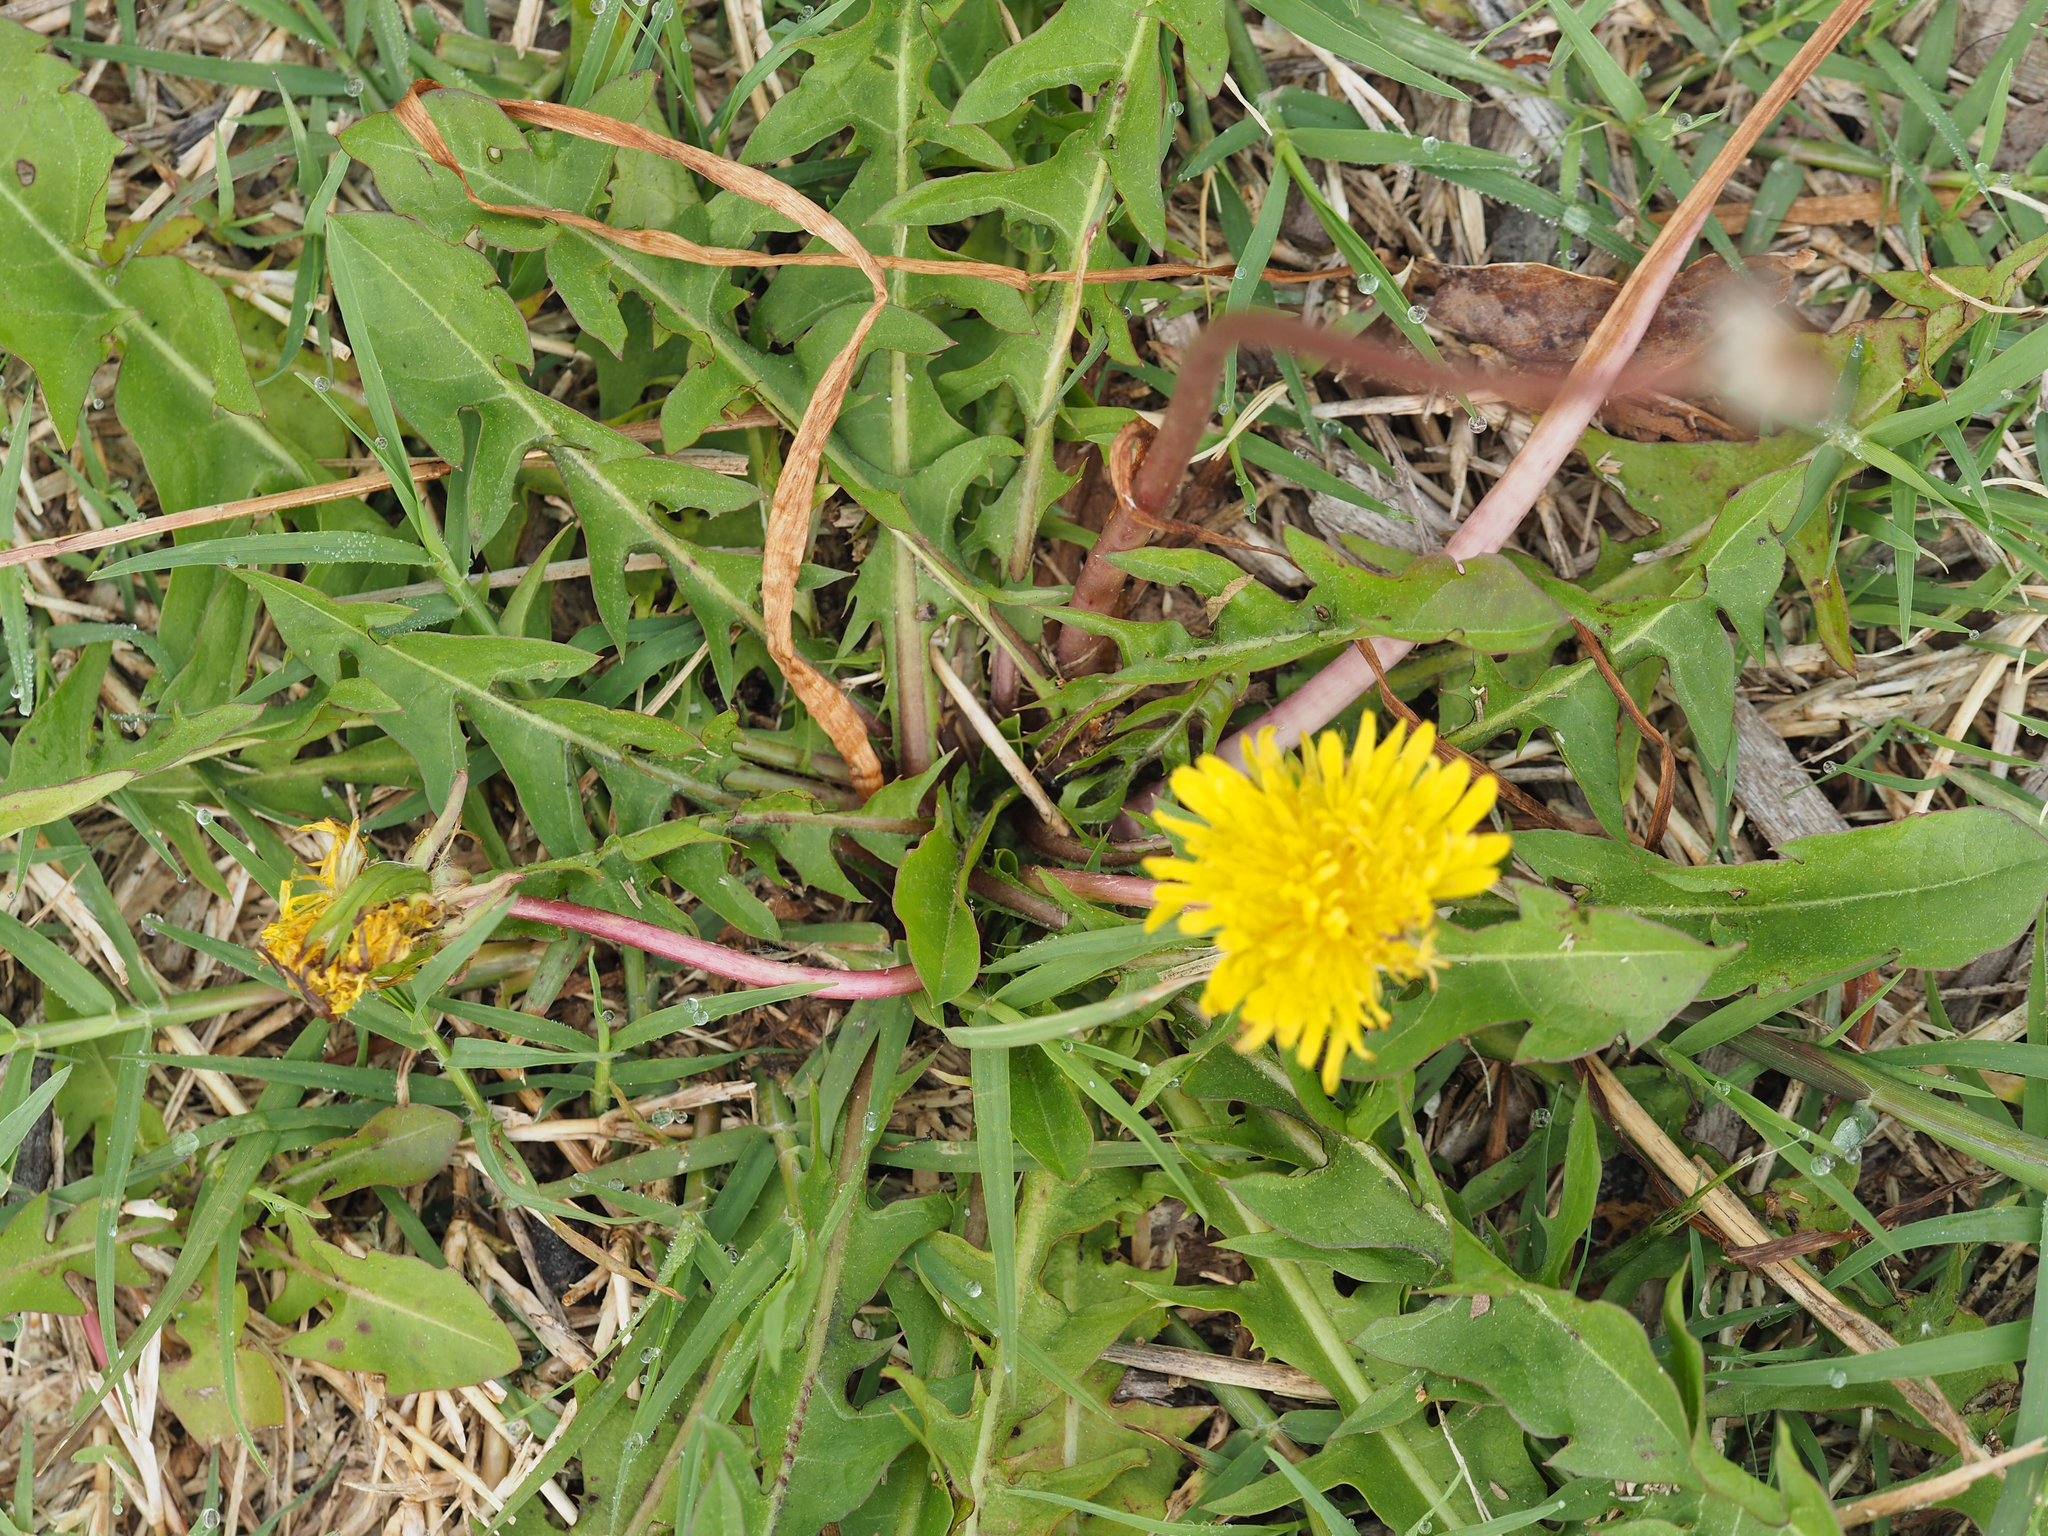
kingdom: Plantae
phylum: Tracheophyta
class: Magnoliopsida
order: Asterales
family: Asteraceae
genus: Taraxacum
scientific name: Taraxacum officinale
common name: Common dandelion
